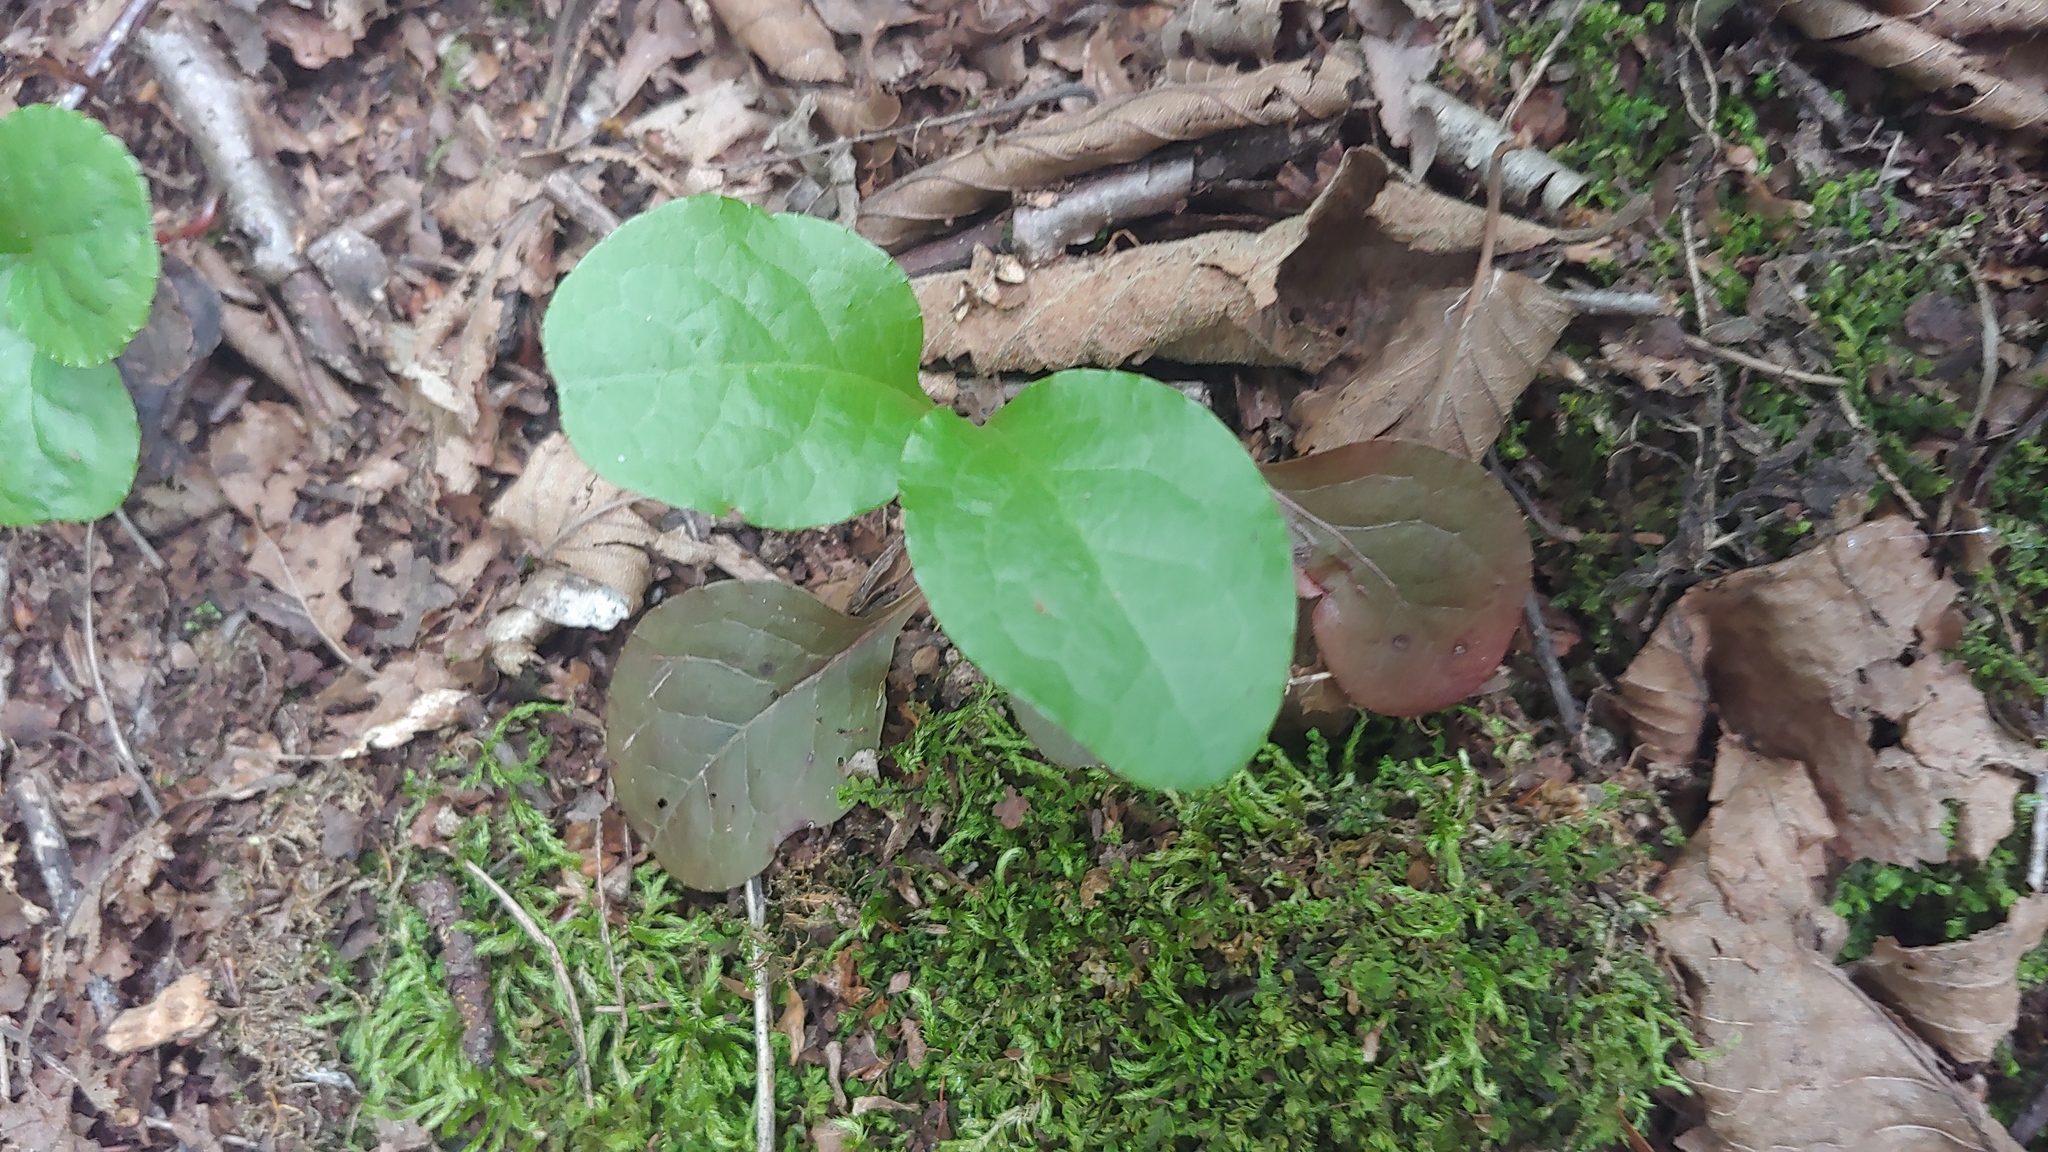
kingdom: Plantae
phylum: Tracheophyta
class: Magnoliopsida
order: Ericales
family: Ericaceae
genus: Pyrola
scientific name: Pyrola elliptica
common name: Shinleaf
